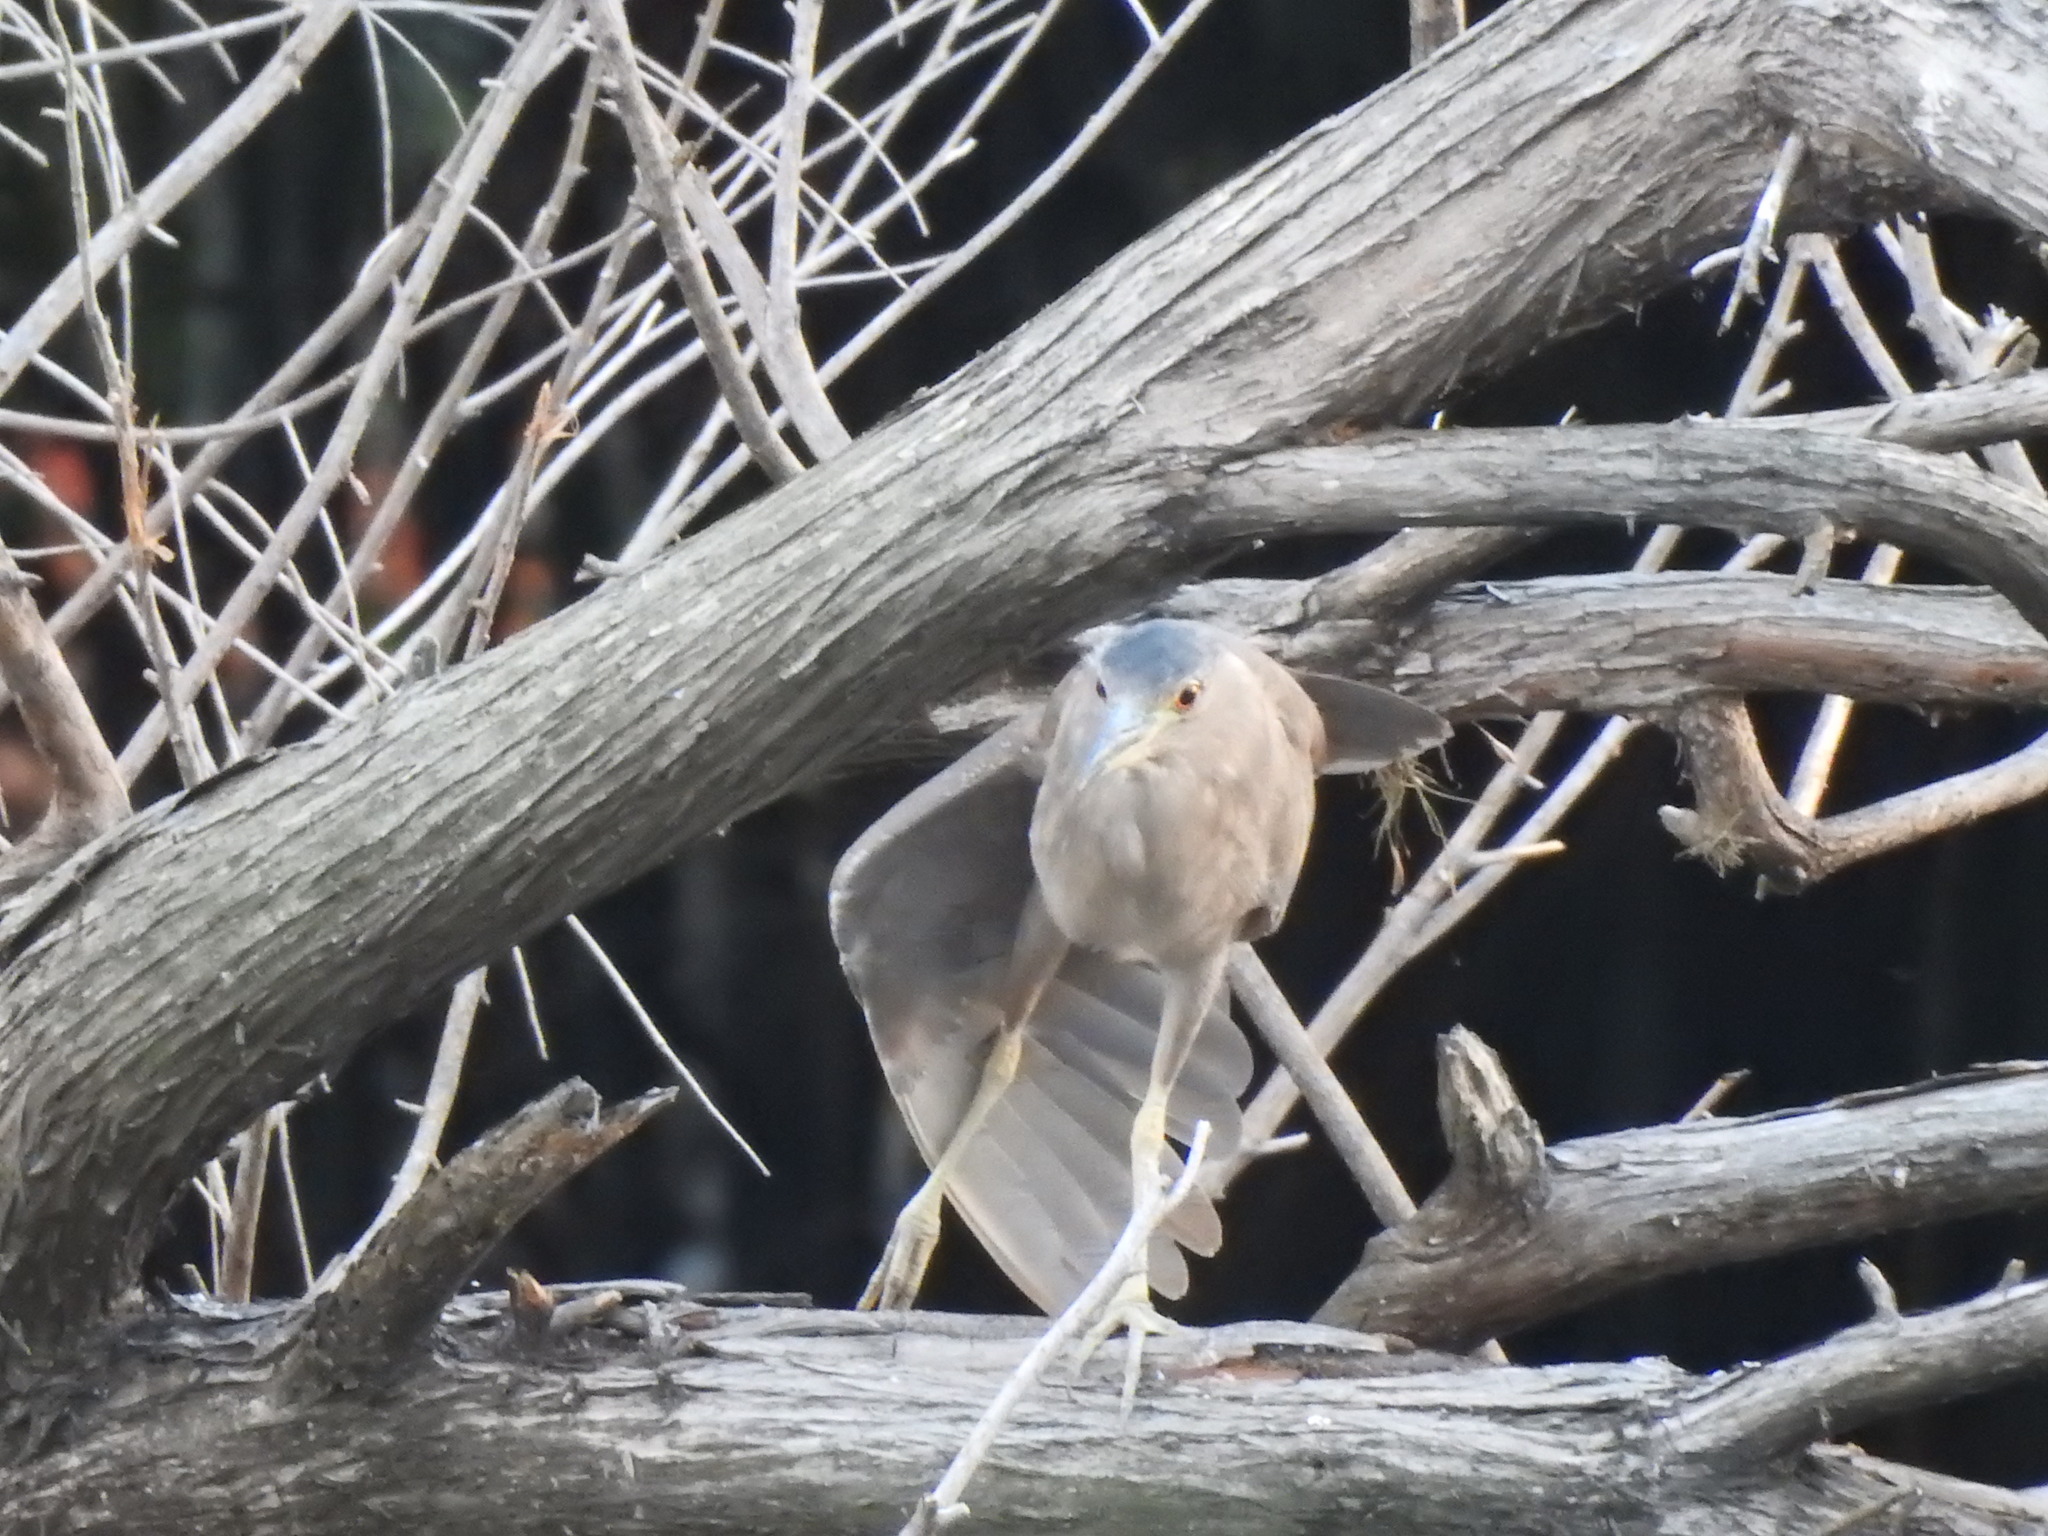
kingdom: Animalia
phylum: Chordata
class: Aves
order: Pelecaniformes
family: Ardeidae
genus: Nycticorax
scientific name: Nycticorax nycticorax
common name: Black-crowned night heron
